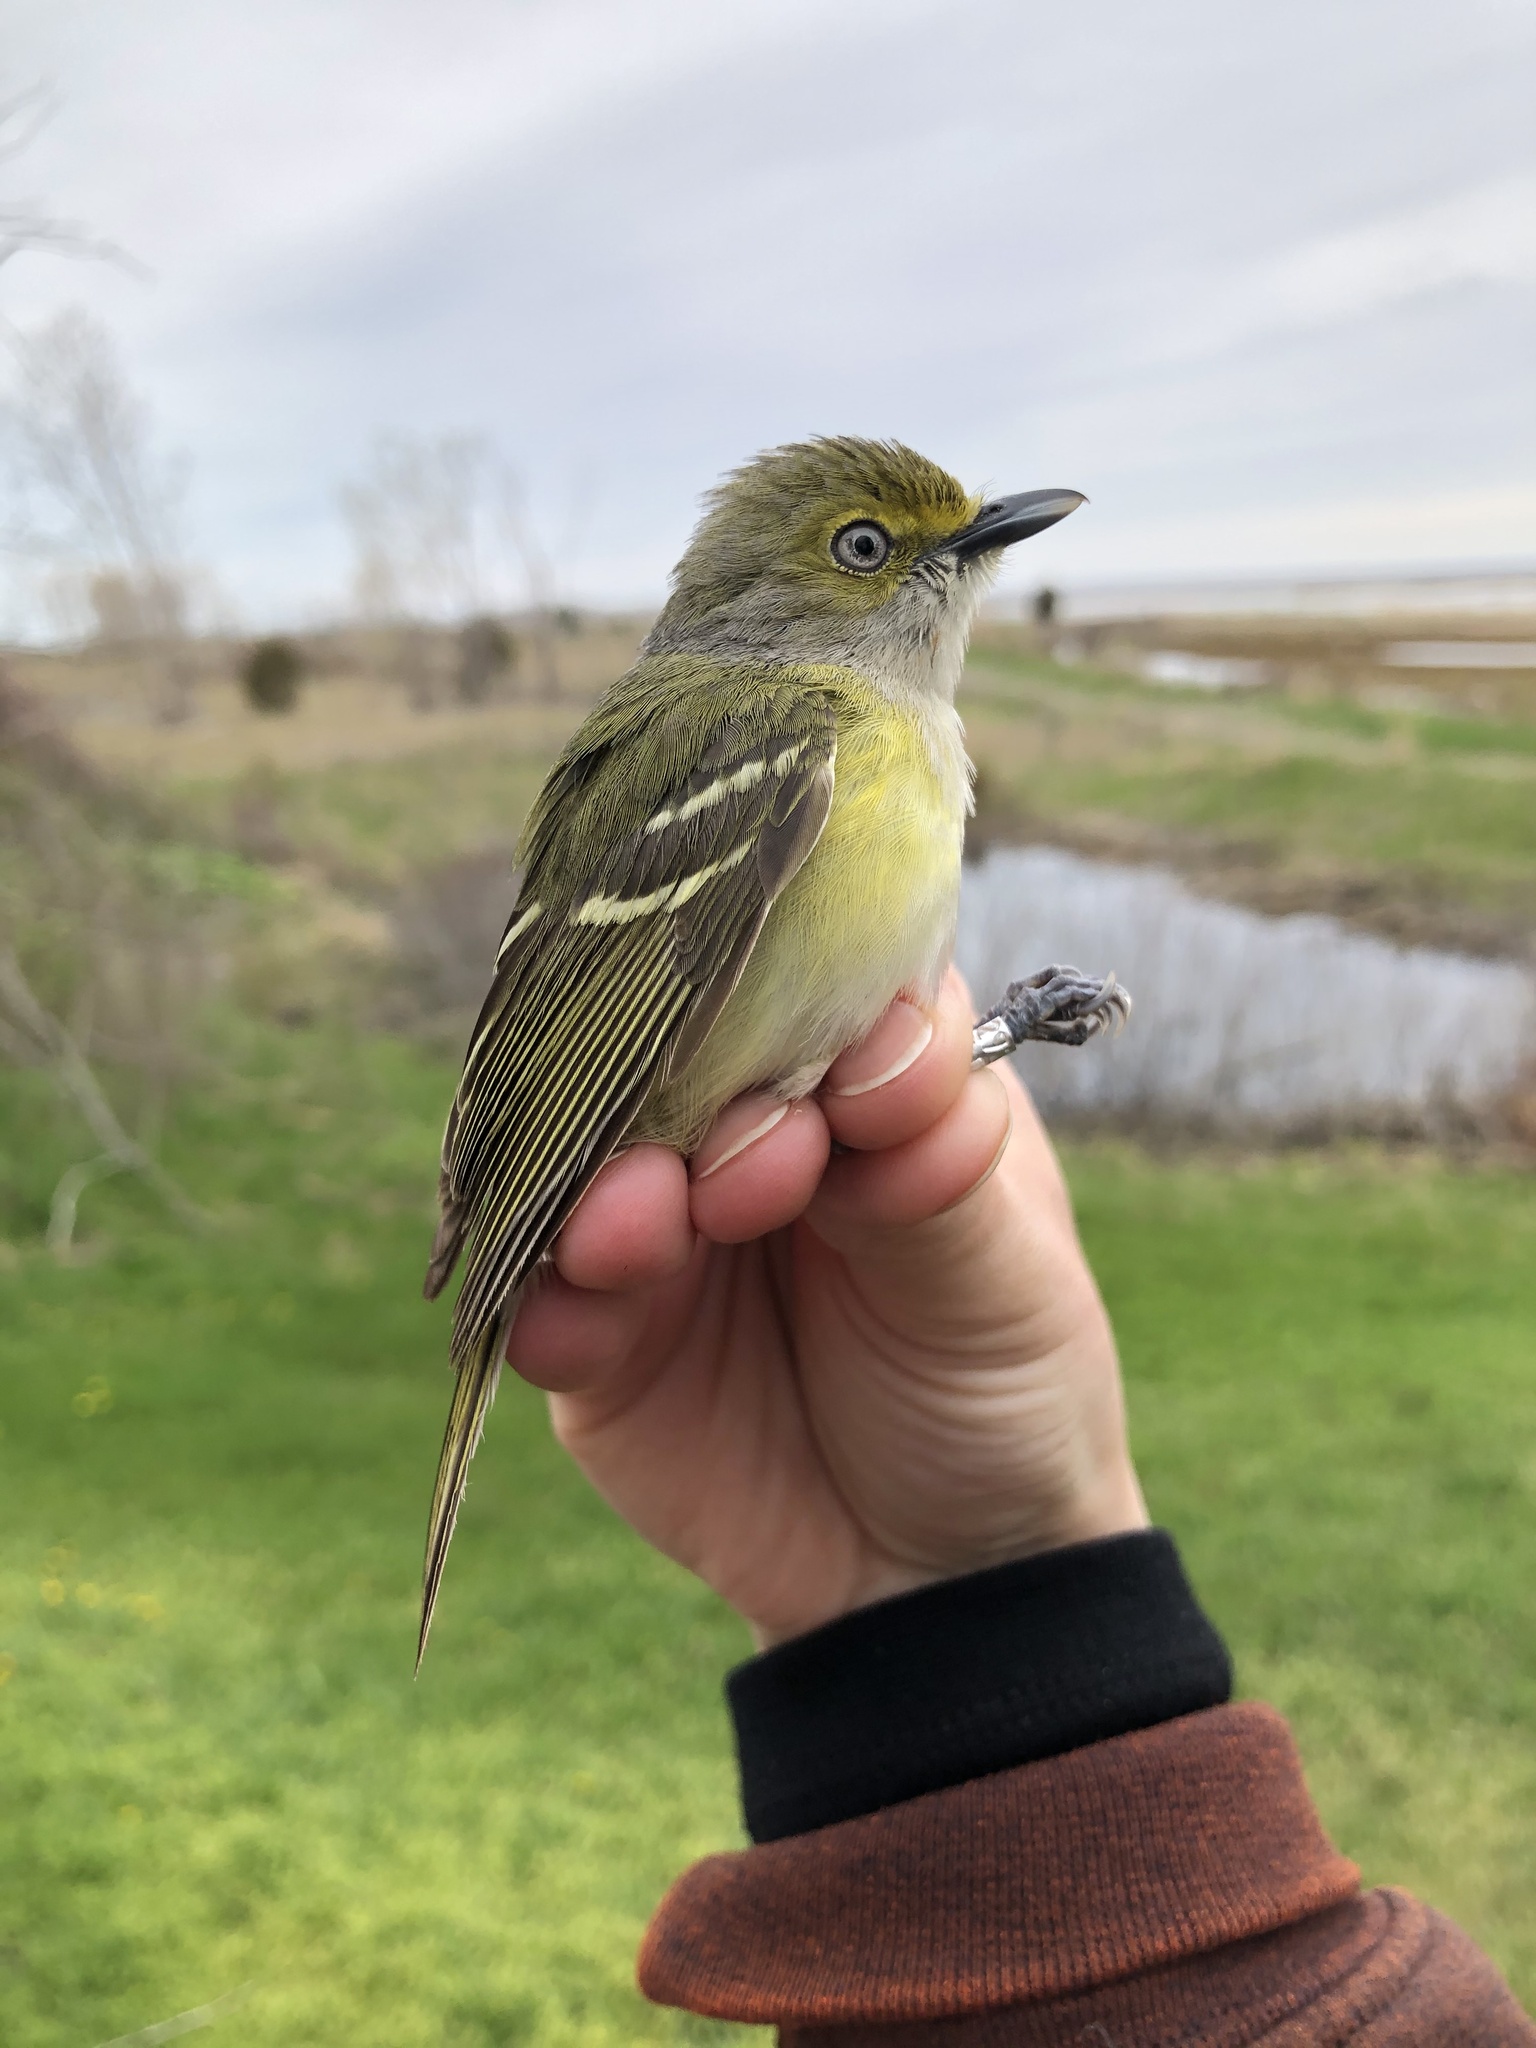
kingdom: Animalia
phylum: Chordata
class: Aves
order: Passeriformes
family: Vireonidae
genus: Vireo
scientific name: Vireo griseus
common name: White-eyed vireo
